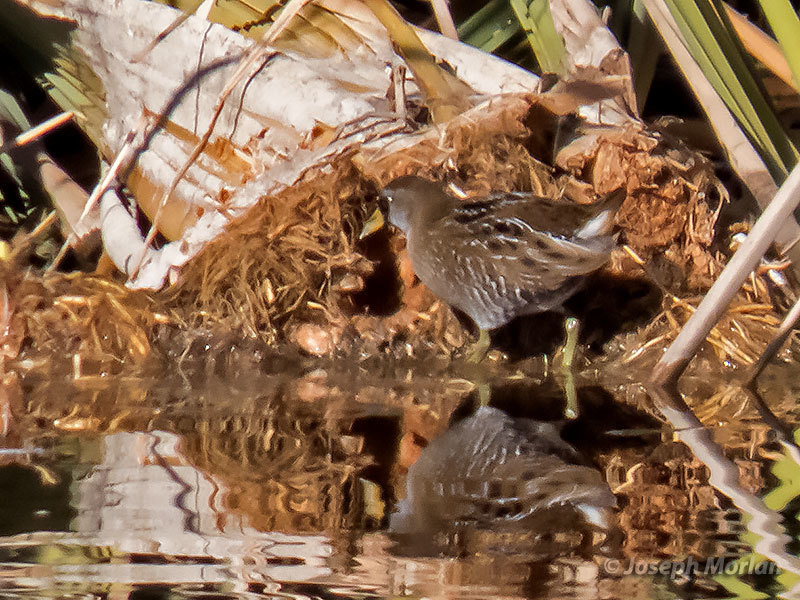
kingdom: Animalia
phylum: Chordata
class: Aves
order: Gruiformes
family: Rallidae
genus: Porzana
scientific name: Porzana carolina
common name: Sora
